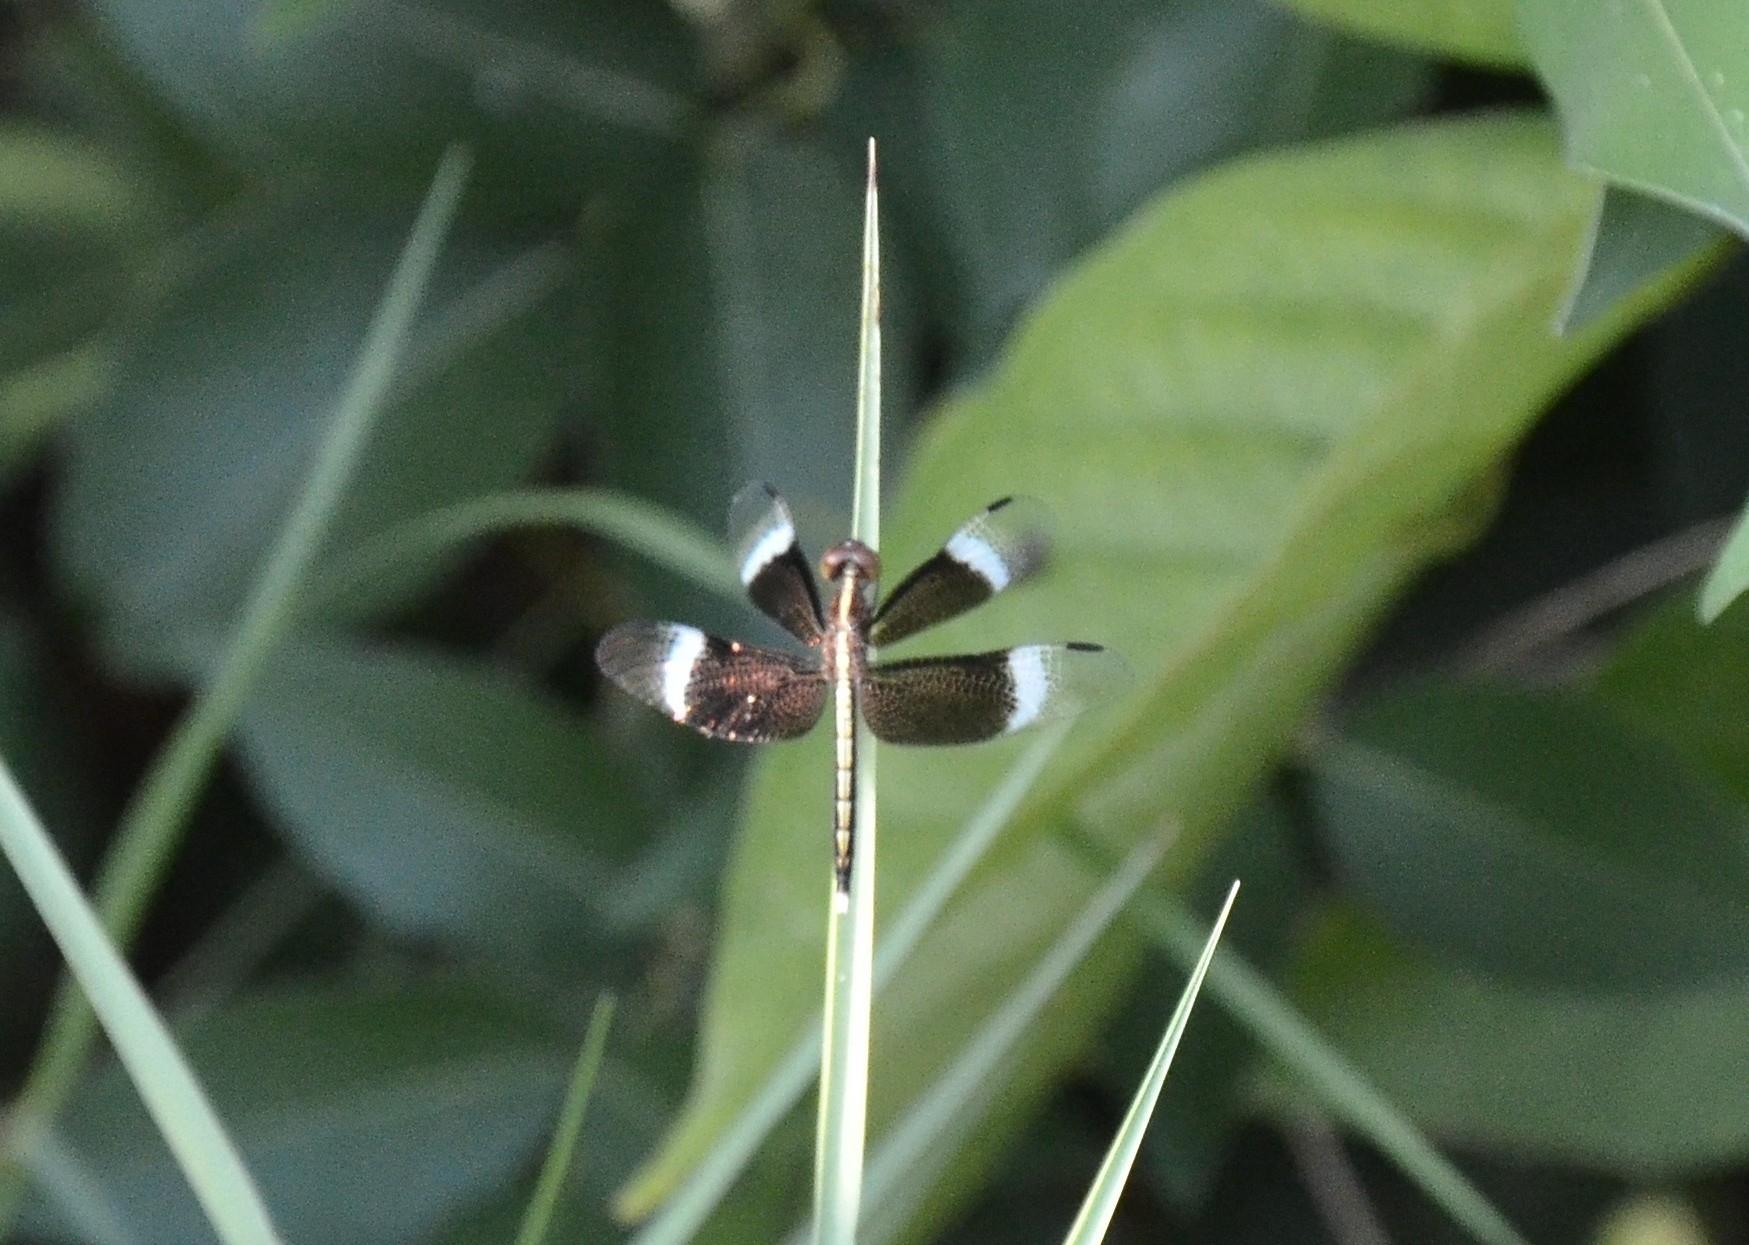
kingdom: Animalia
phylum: Arthropoda
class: Insecta
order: Odonata
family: Libellulidae
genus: Neurothemis
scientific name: Neurothemis tullia
